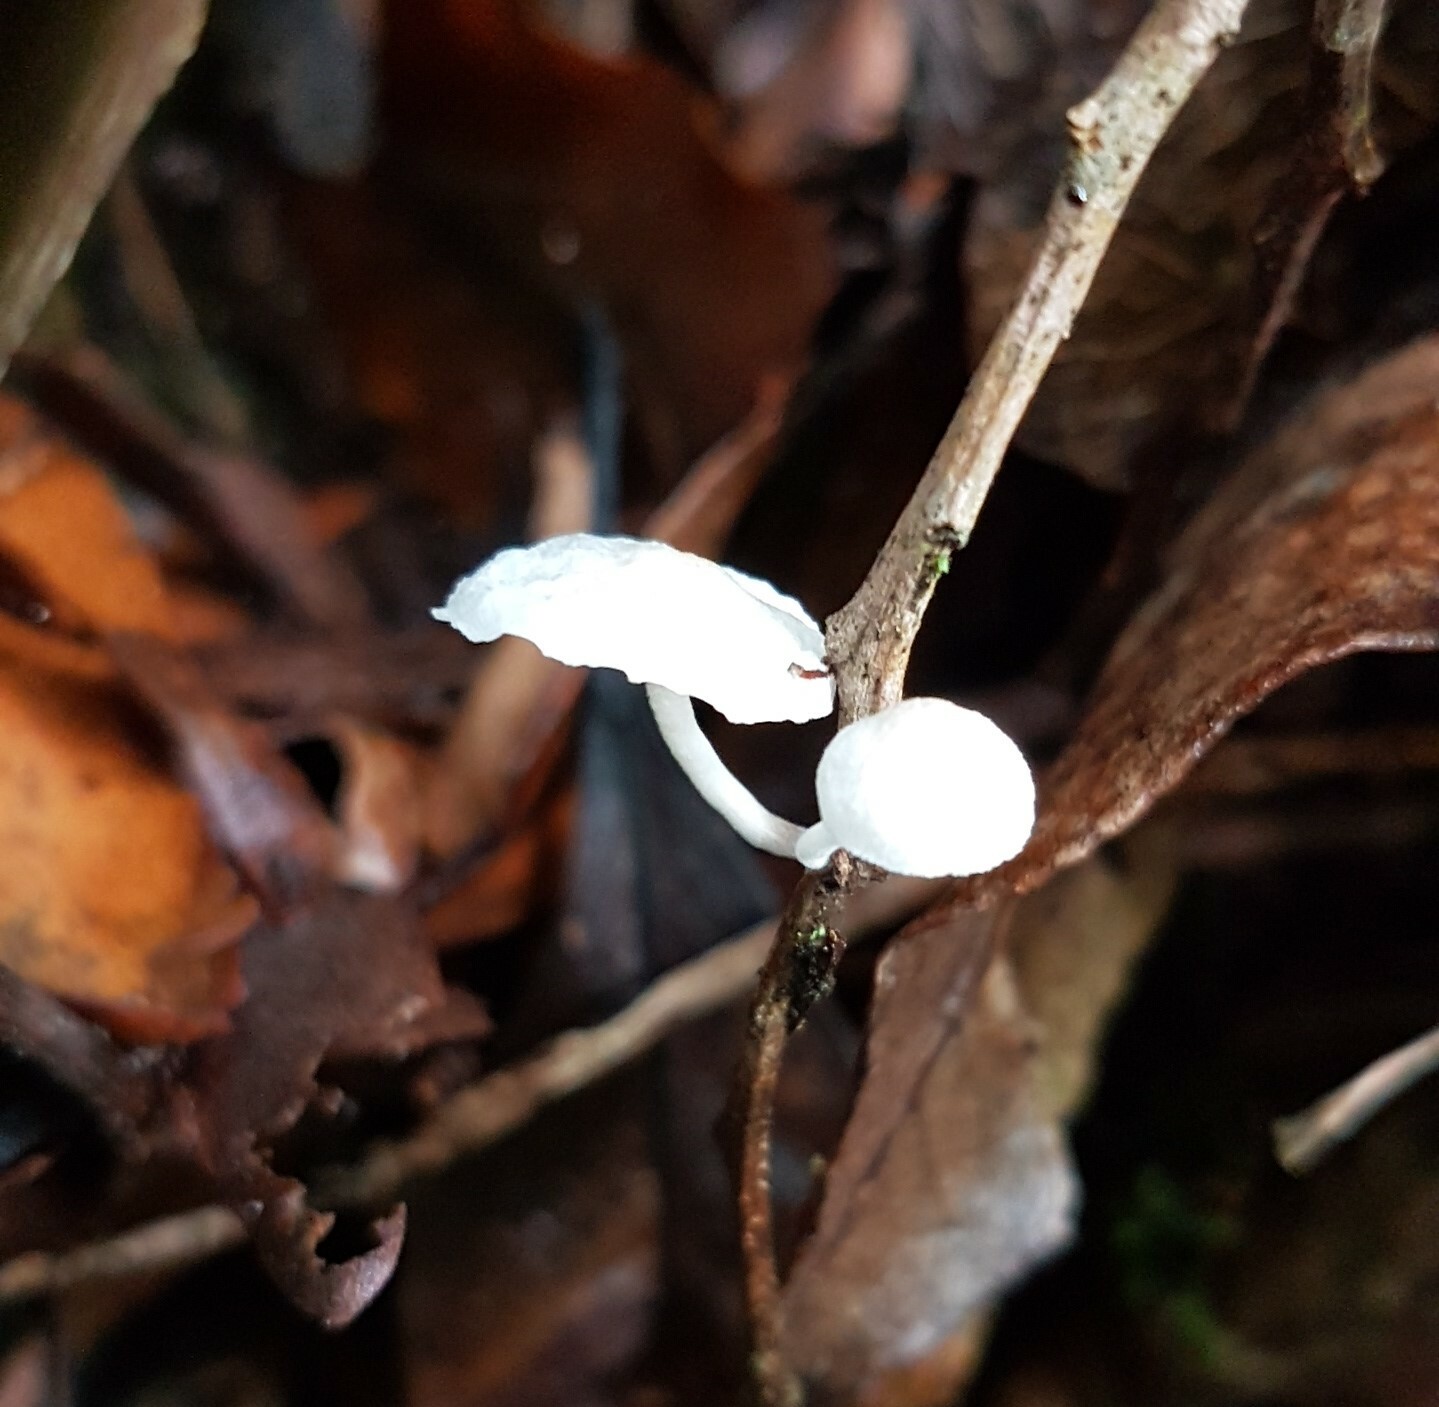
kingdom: Fungi
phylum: Basidiomycota
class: Agaricomycetes
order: Agaricales
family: Omphalotaceae
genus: Marasmiellus
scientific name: Marasmiellus candidus
